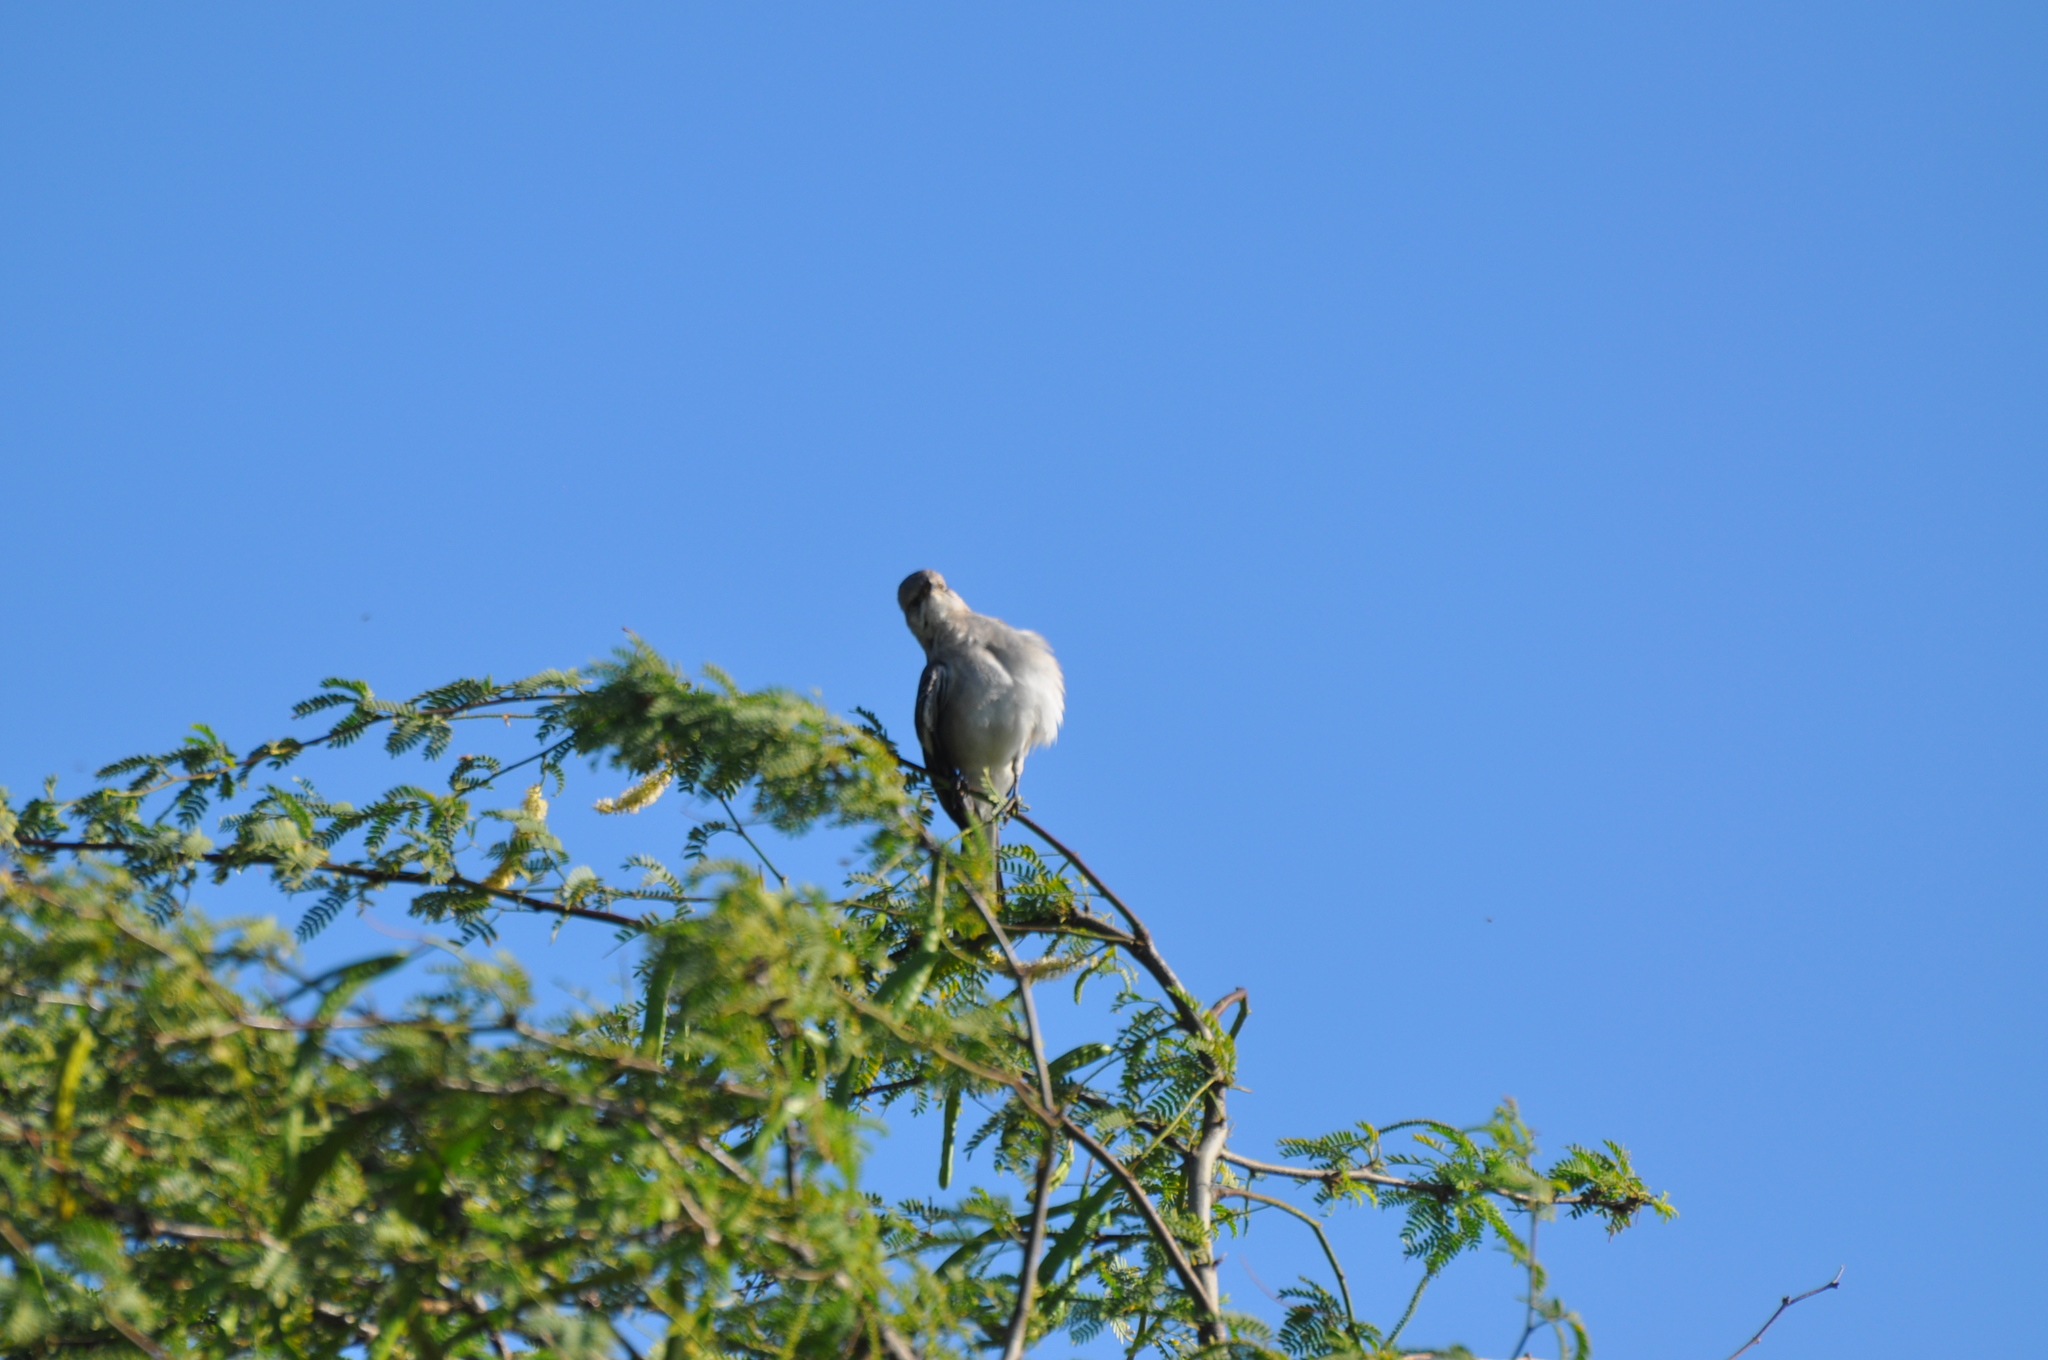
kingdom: Animalia
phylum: Chordata
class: Aves
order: Passeriformes
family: Mimidae
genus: Mimus
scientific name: Mimus polyglottos
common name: Northern mockingbird
